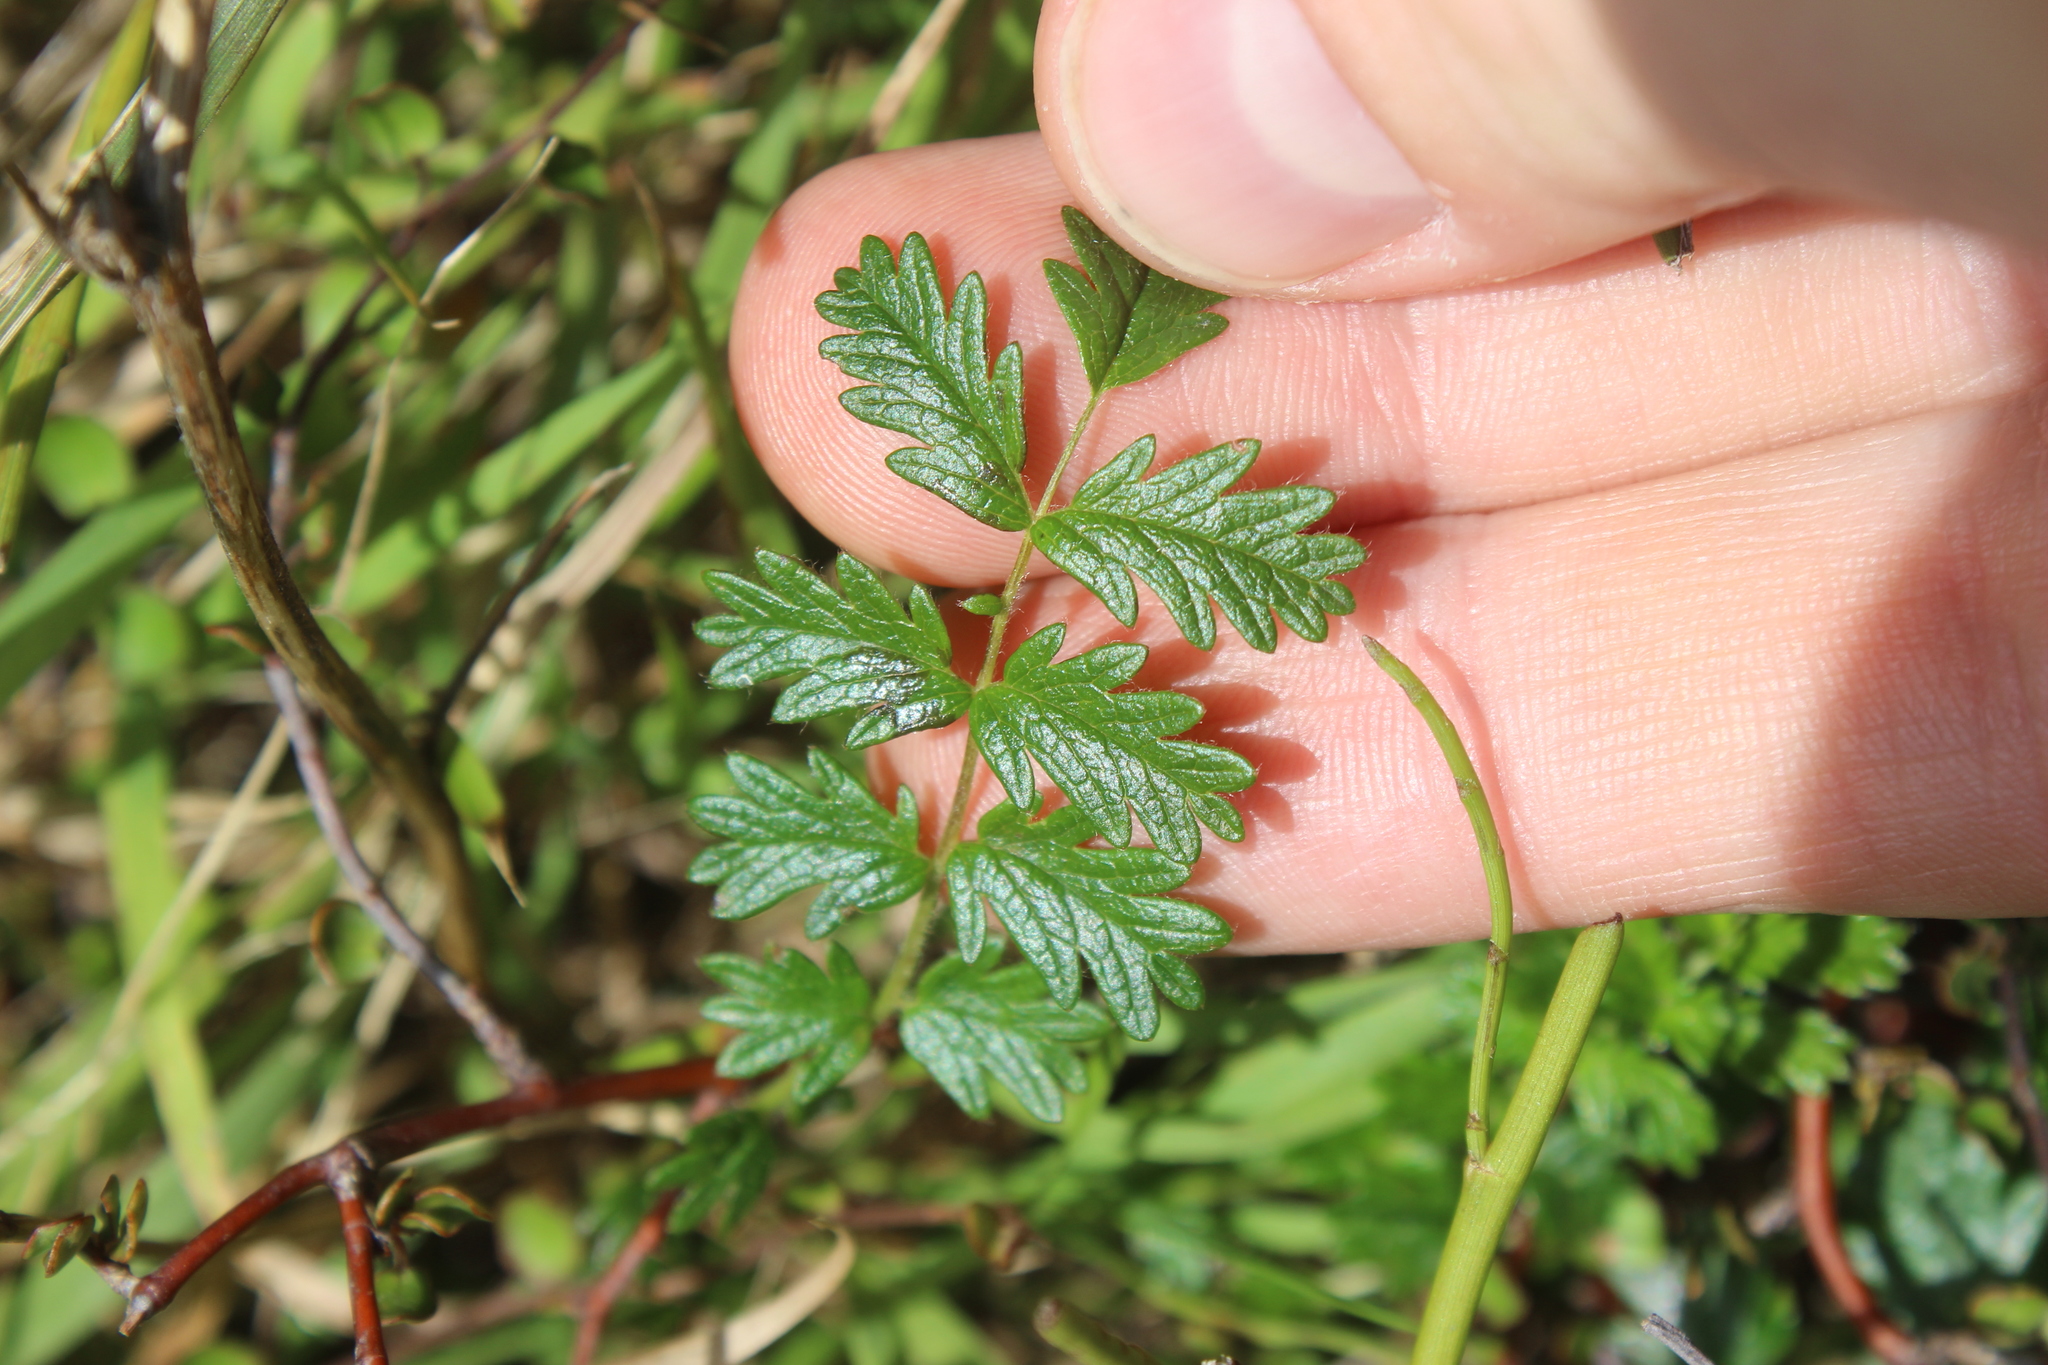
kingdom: Plantae
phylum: Tracheophyta
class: Magnoliopsida
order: Rosales
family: Rosaceae
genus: Acaena
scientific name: Acaena novae-zelandiae
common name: Pirri-pirri-bur
